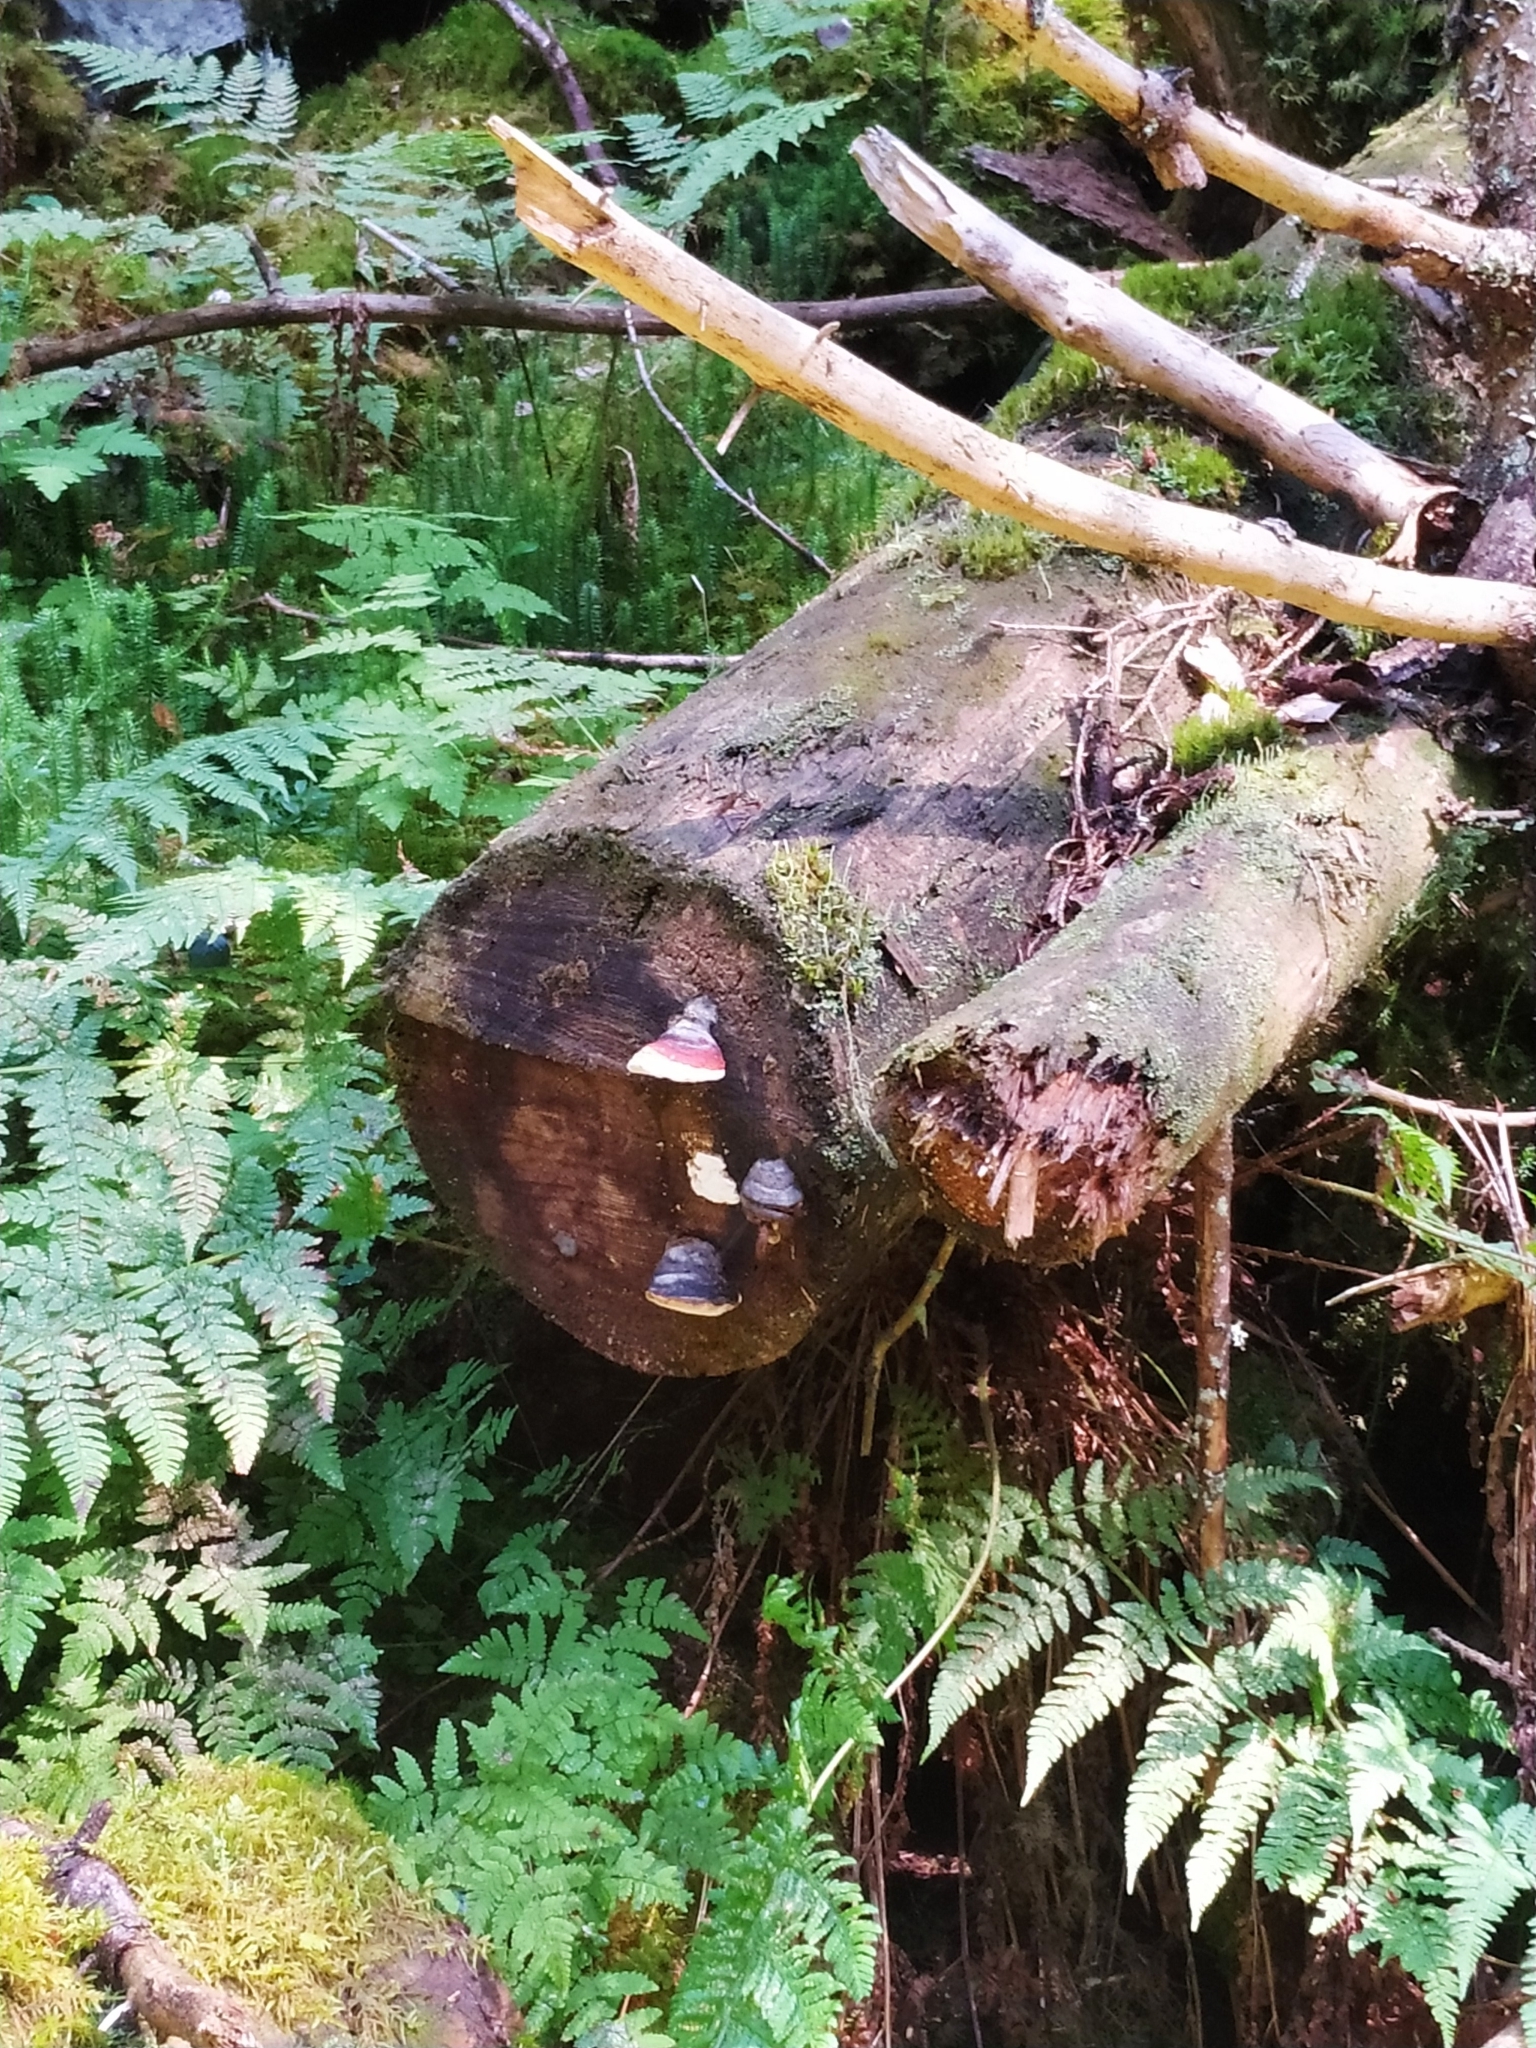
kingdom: Fungi
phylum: Basidiomycota
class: Agaricomycetes
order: Polyporales
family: Fomitopsidaceae
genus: Fomitopsis
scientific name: Fomitopsis pinicola
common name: Red-belted bracket
